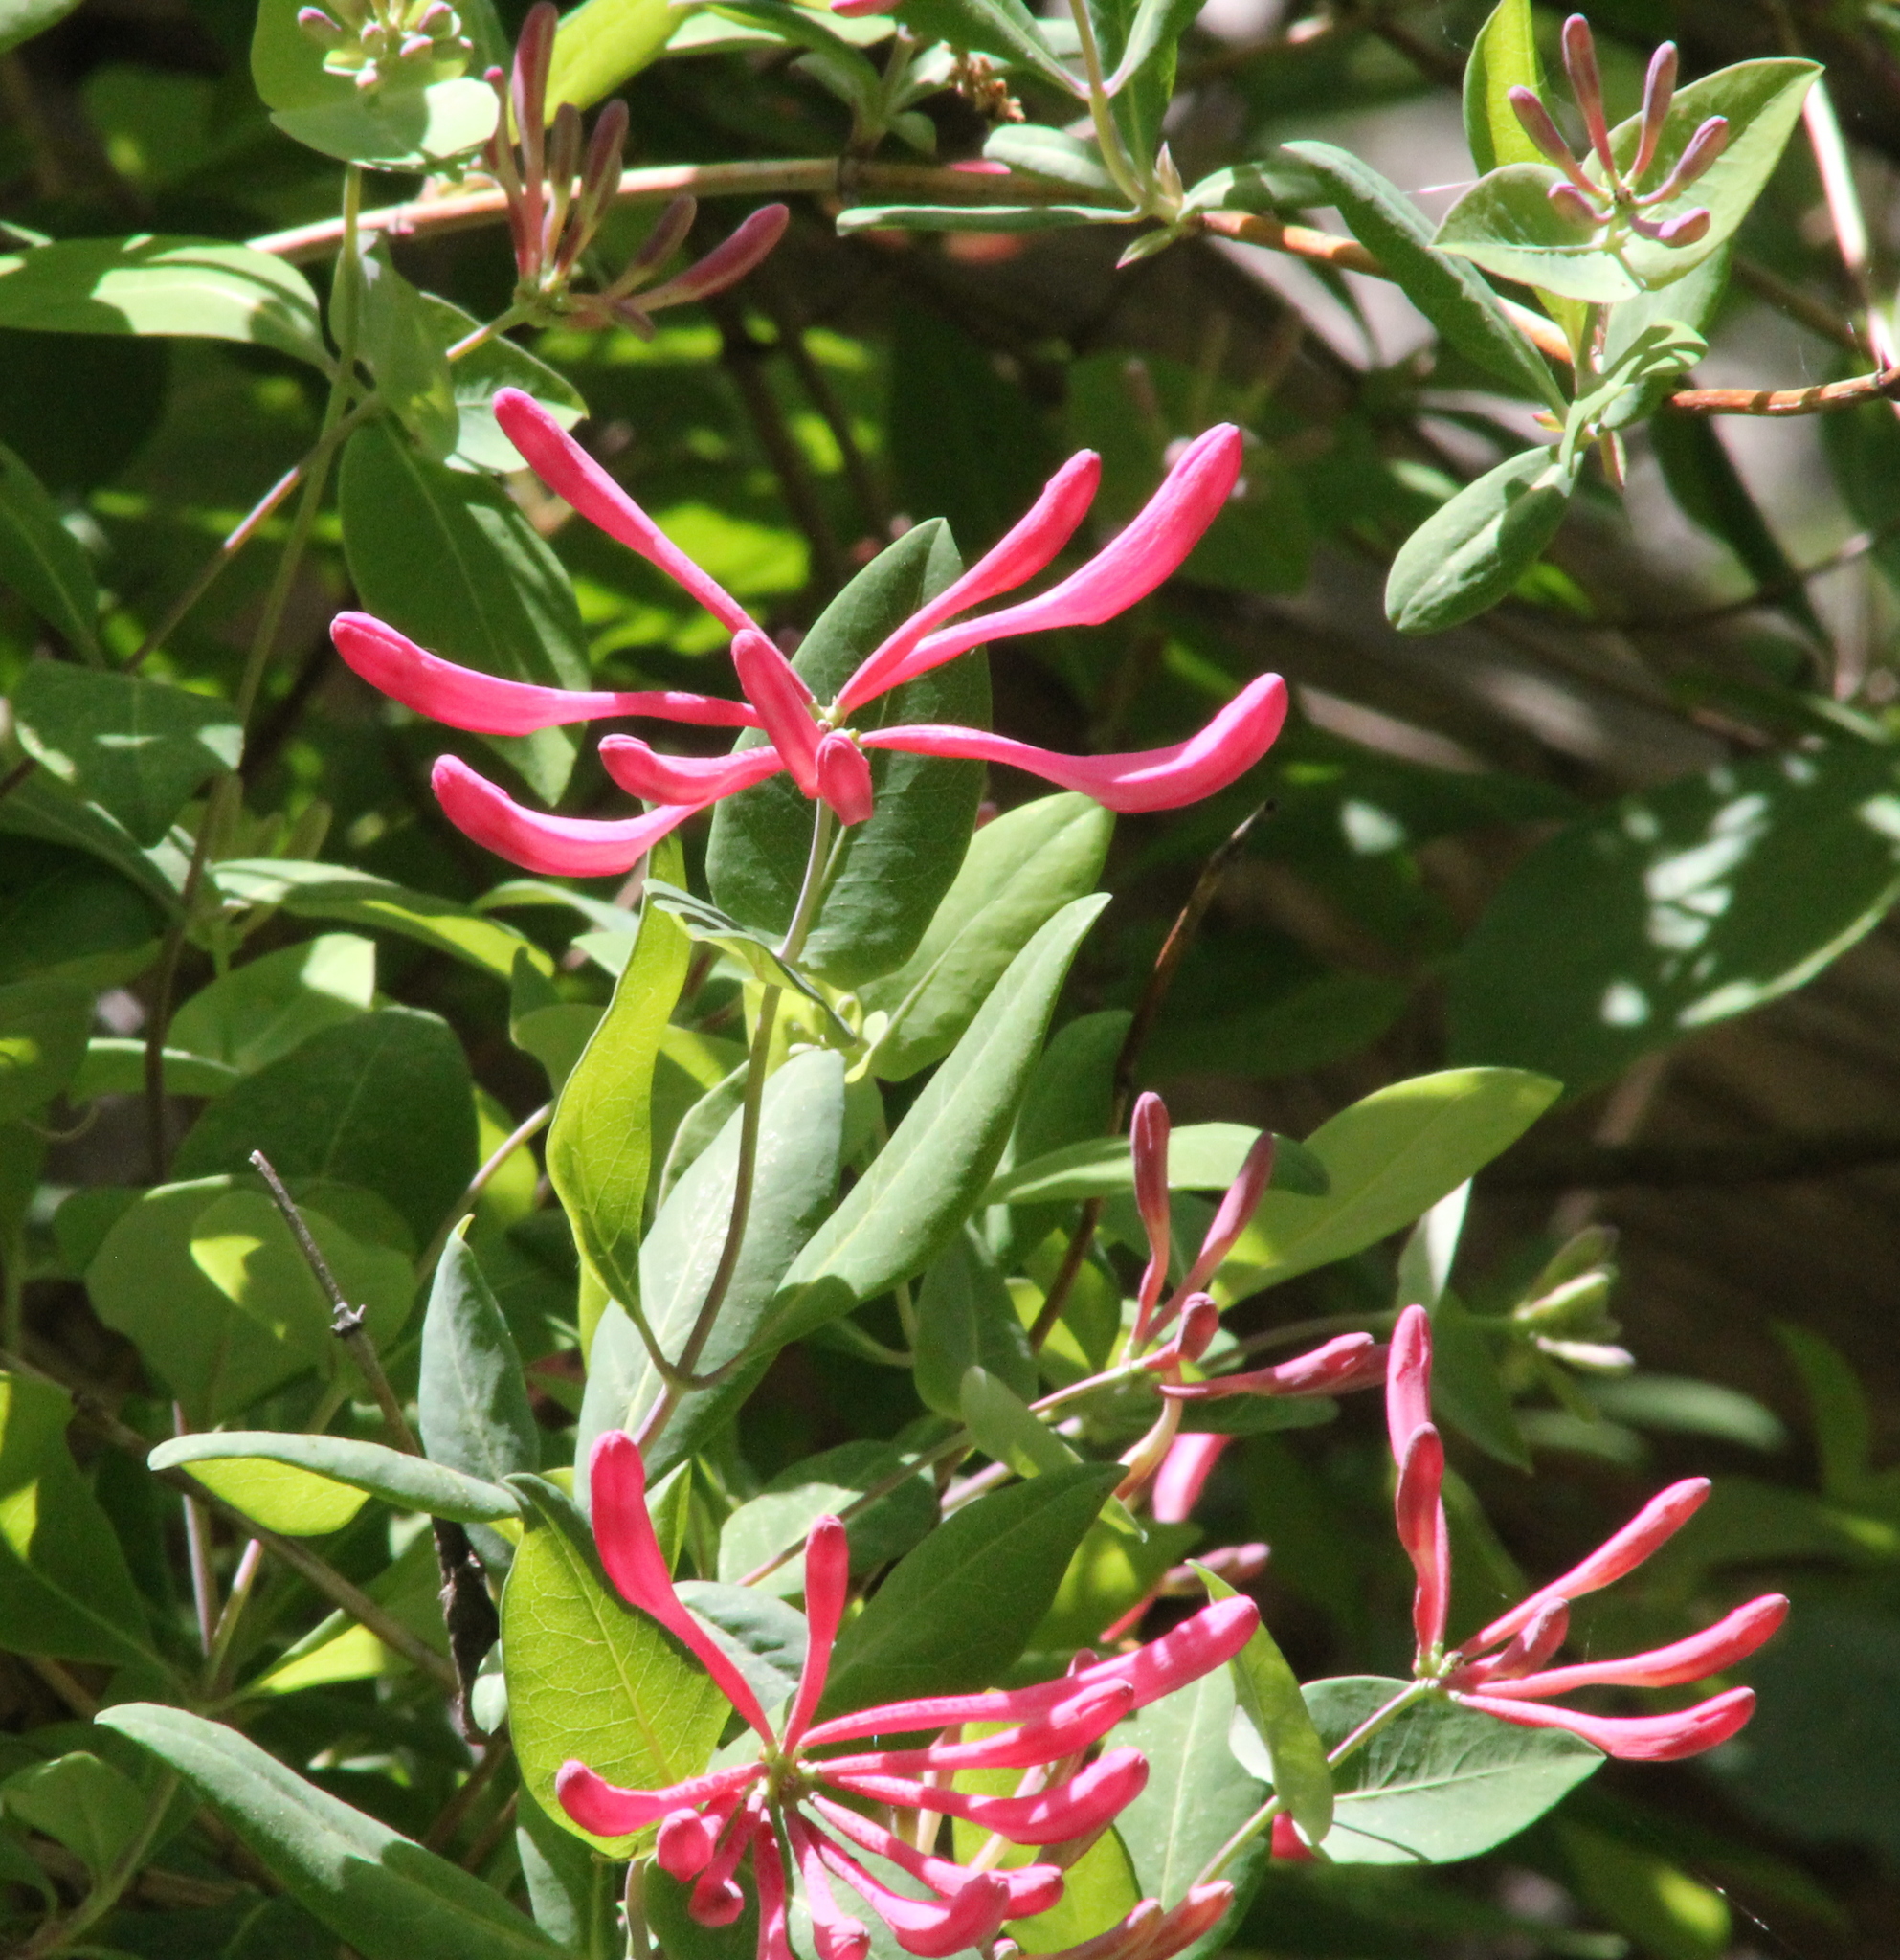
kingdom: Plantae
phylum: Tracheophyta
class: Magnoliopsida
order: Dipsacales
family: Caprifoliaceae
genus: Lonicera
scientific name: Lonicera sempervirens
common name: Coral honeysuckle
